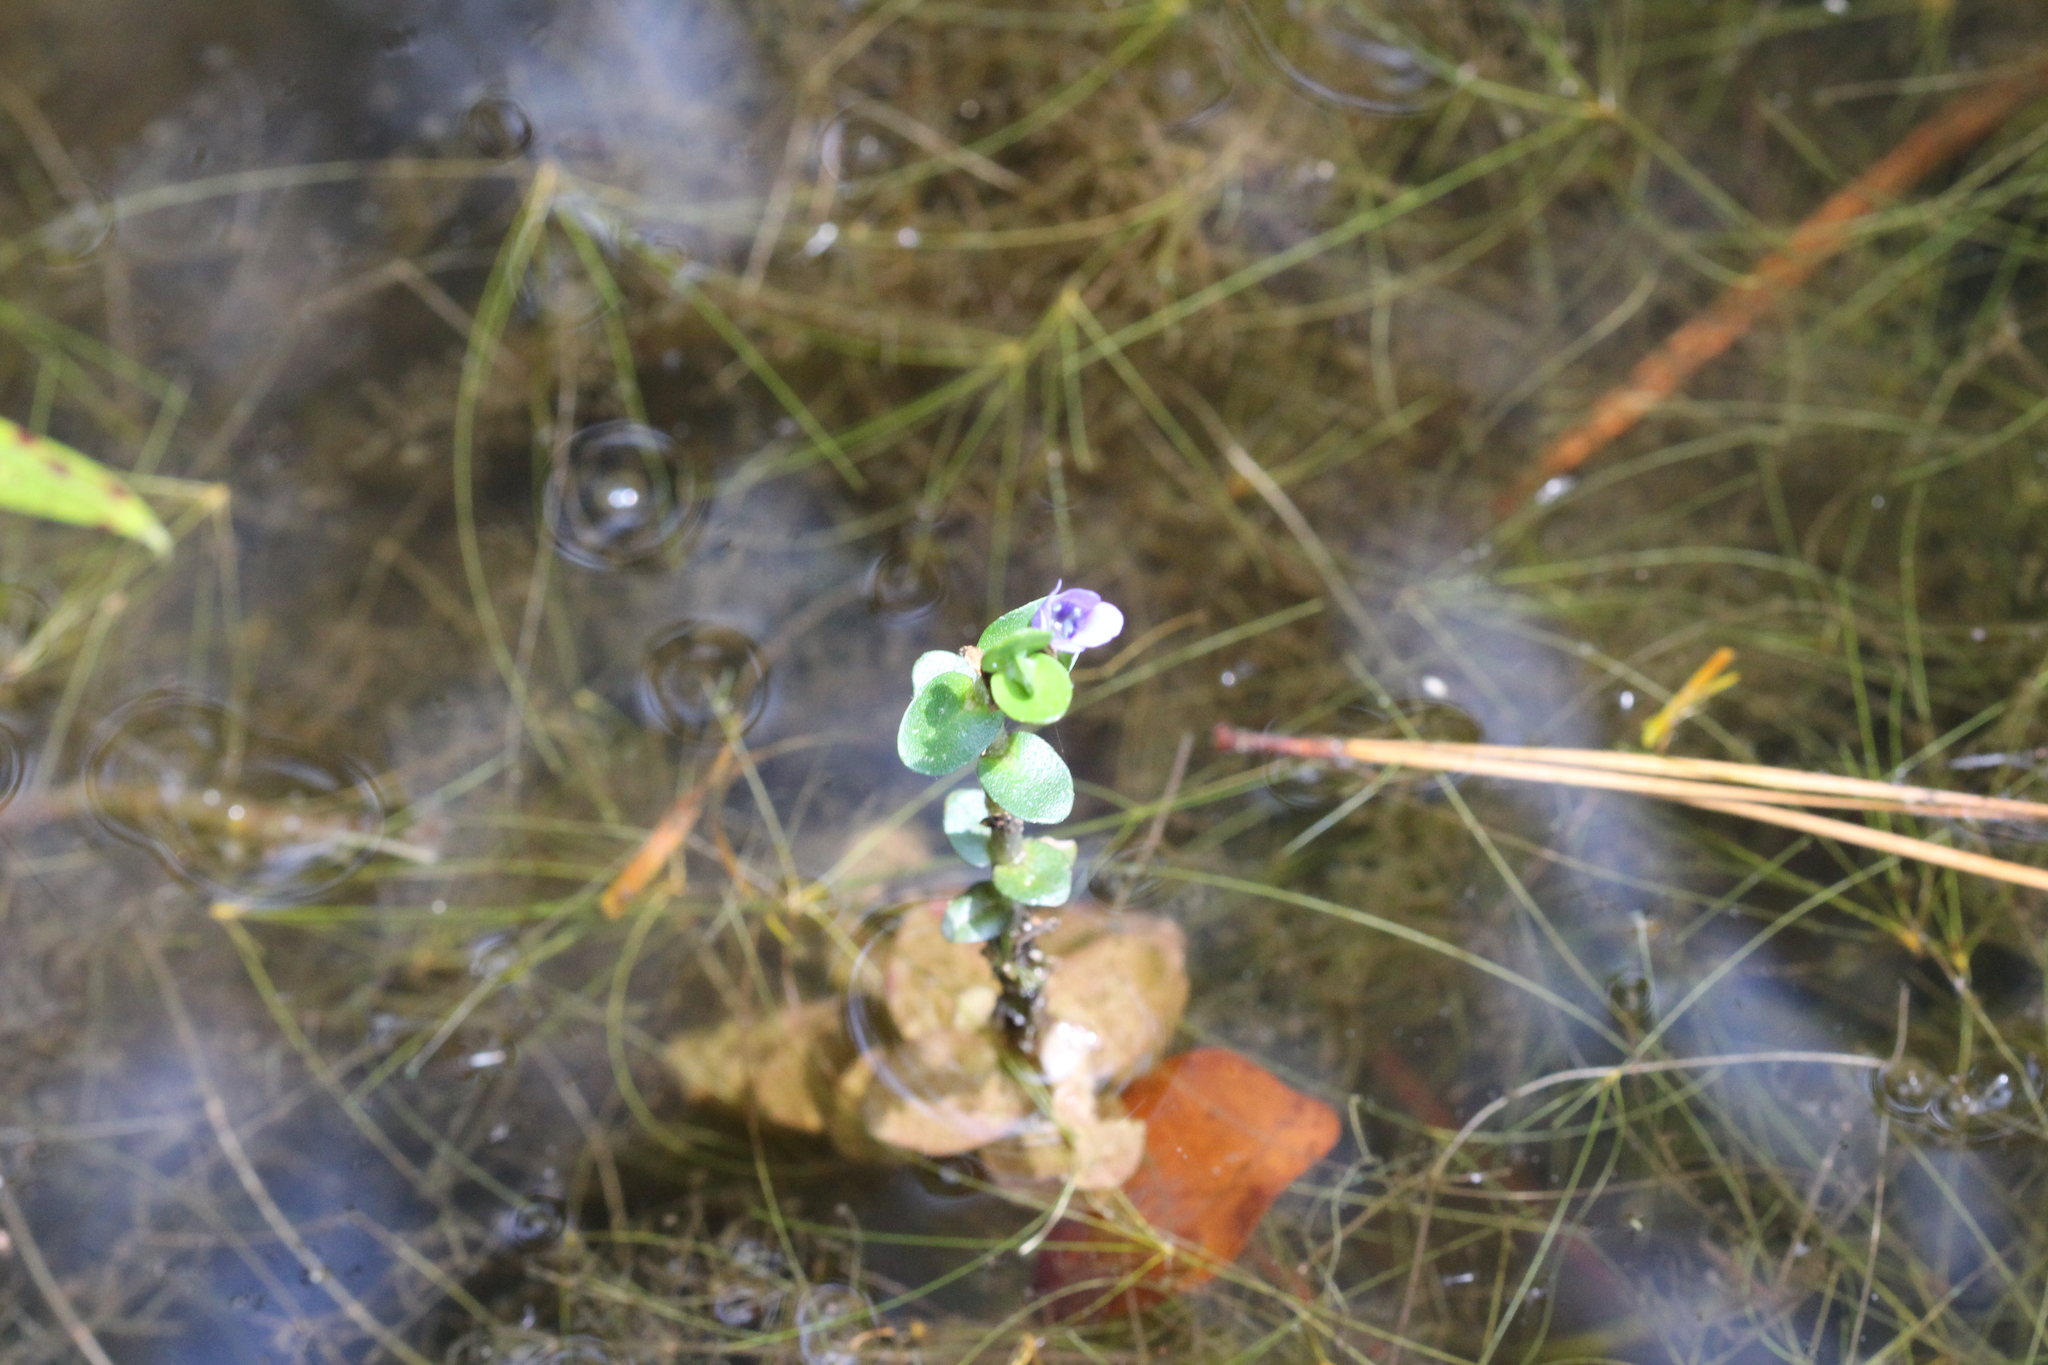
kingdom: Plantae
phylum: Tracheophyta
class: Magnoliopsida
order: Lamiales
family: Plantaginaceae
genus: Bacopa
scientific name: Bacopa caroliniana
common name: Lemon bacopa
